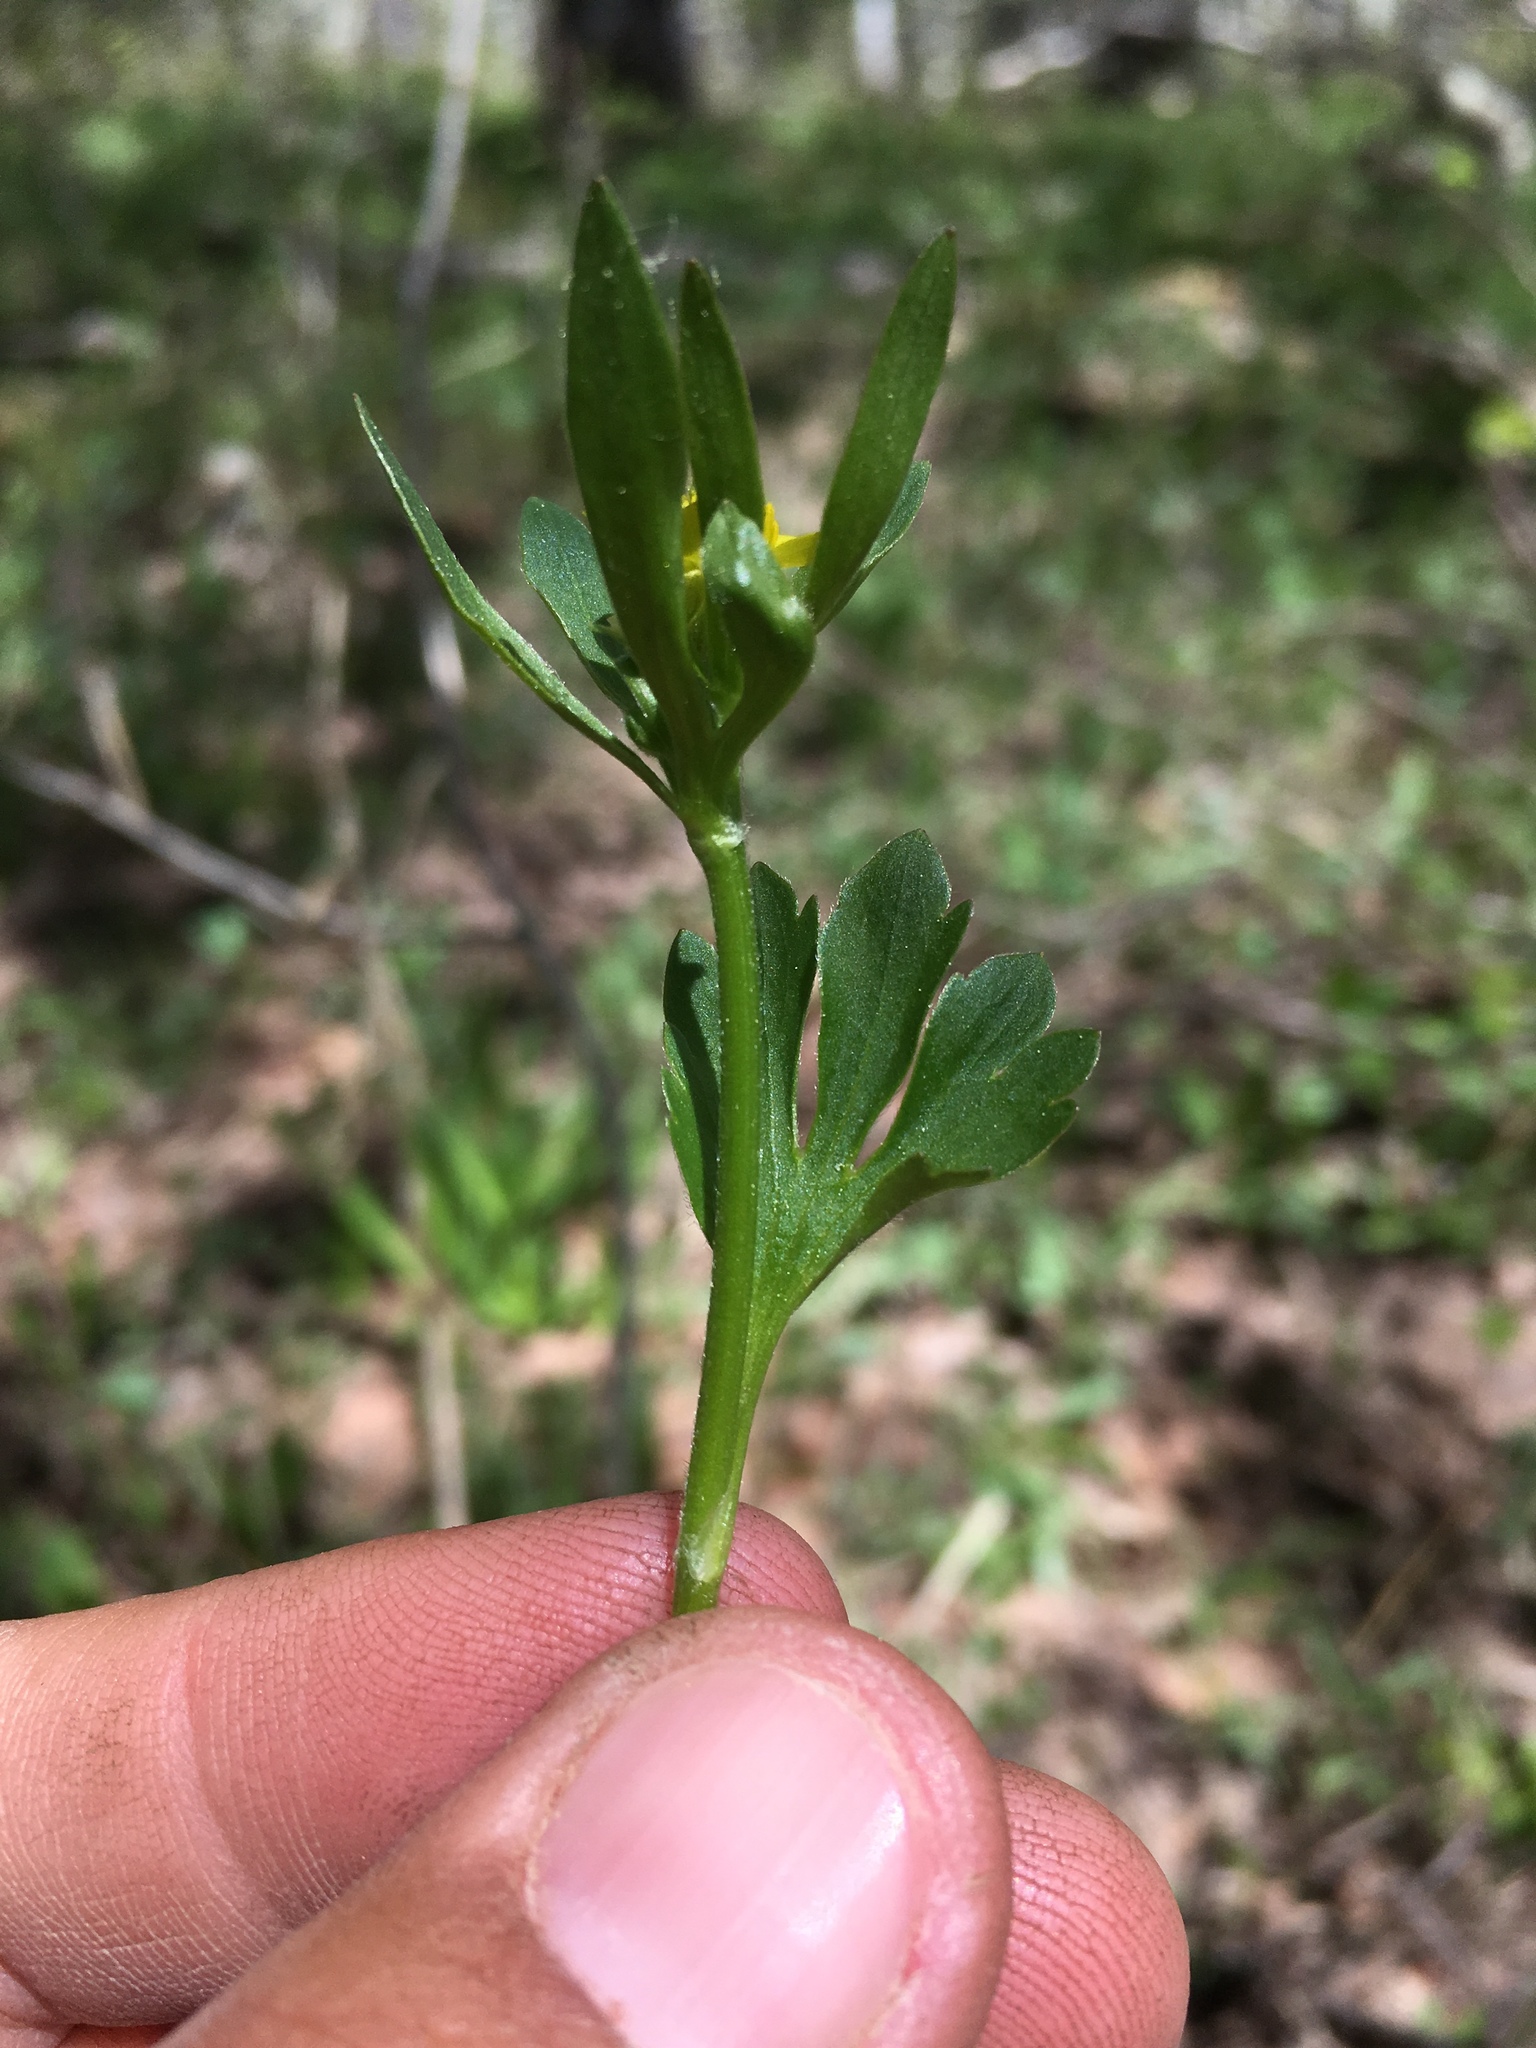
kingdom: Plantae
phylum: Tracheophyta
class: Magnoliopsida
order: Ranunculales
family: Ranunculaceae
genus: Ranunculus
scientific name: Ranunculus inamoenus
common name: Graceful buttercup
